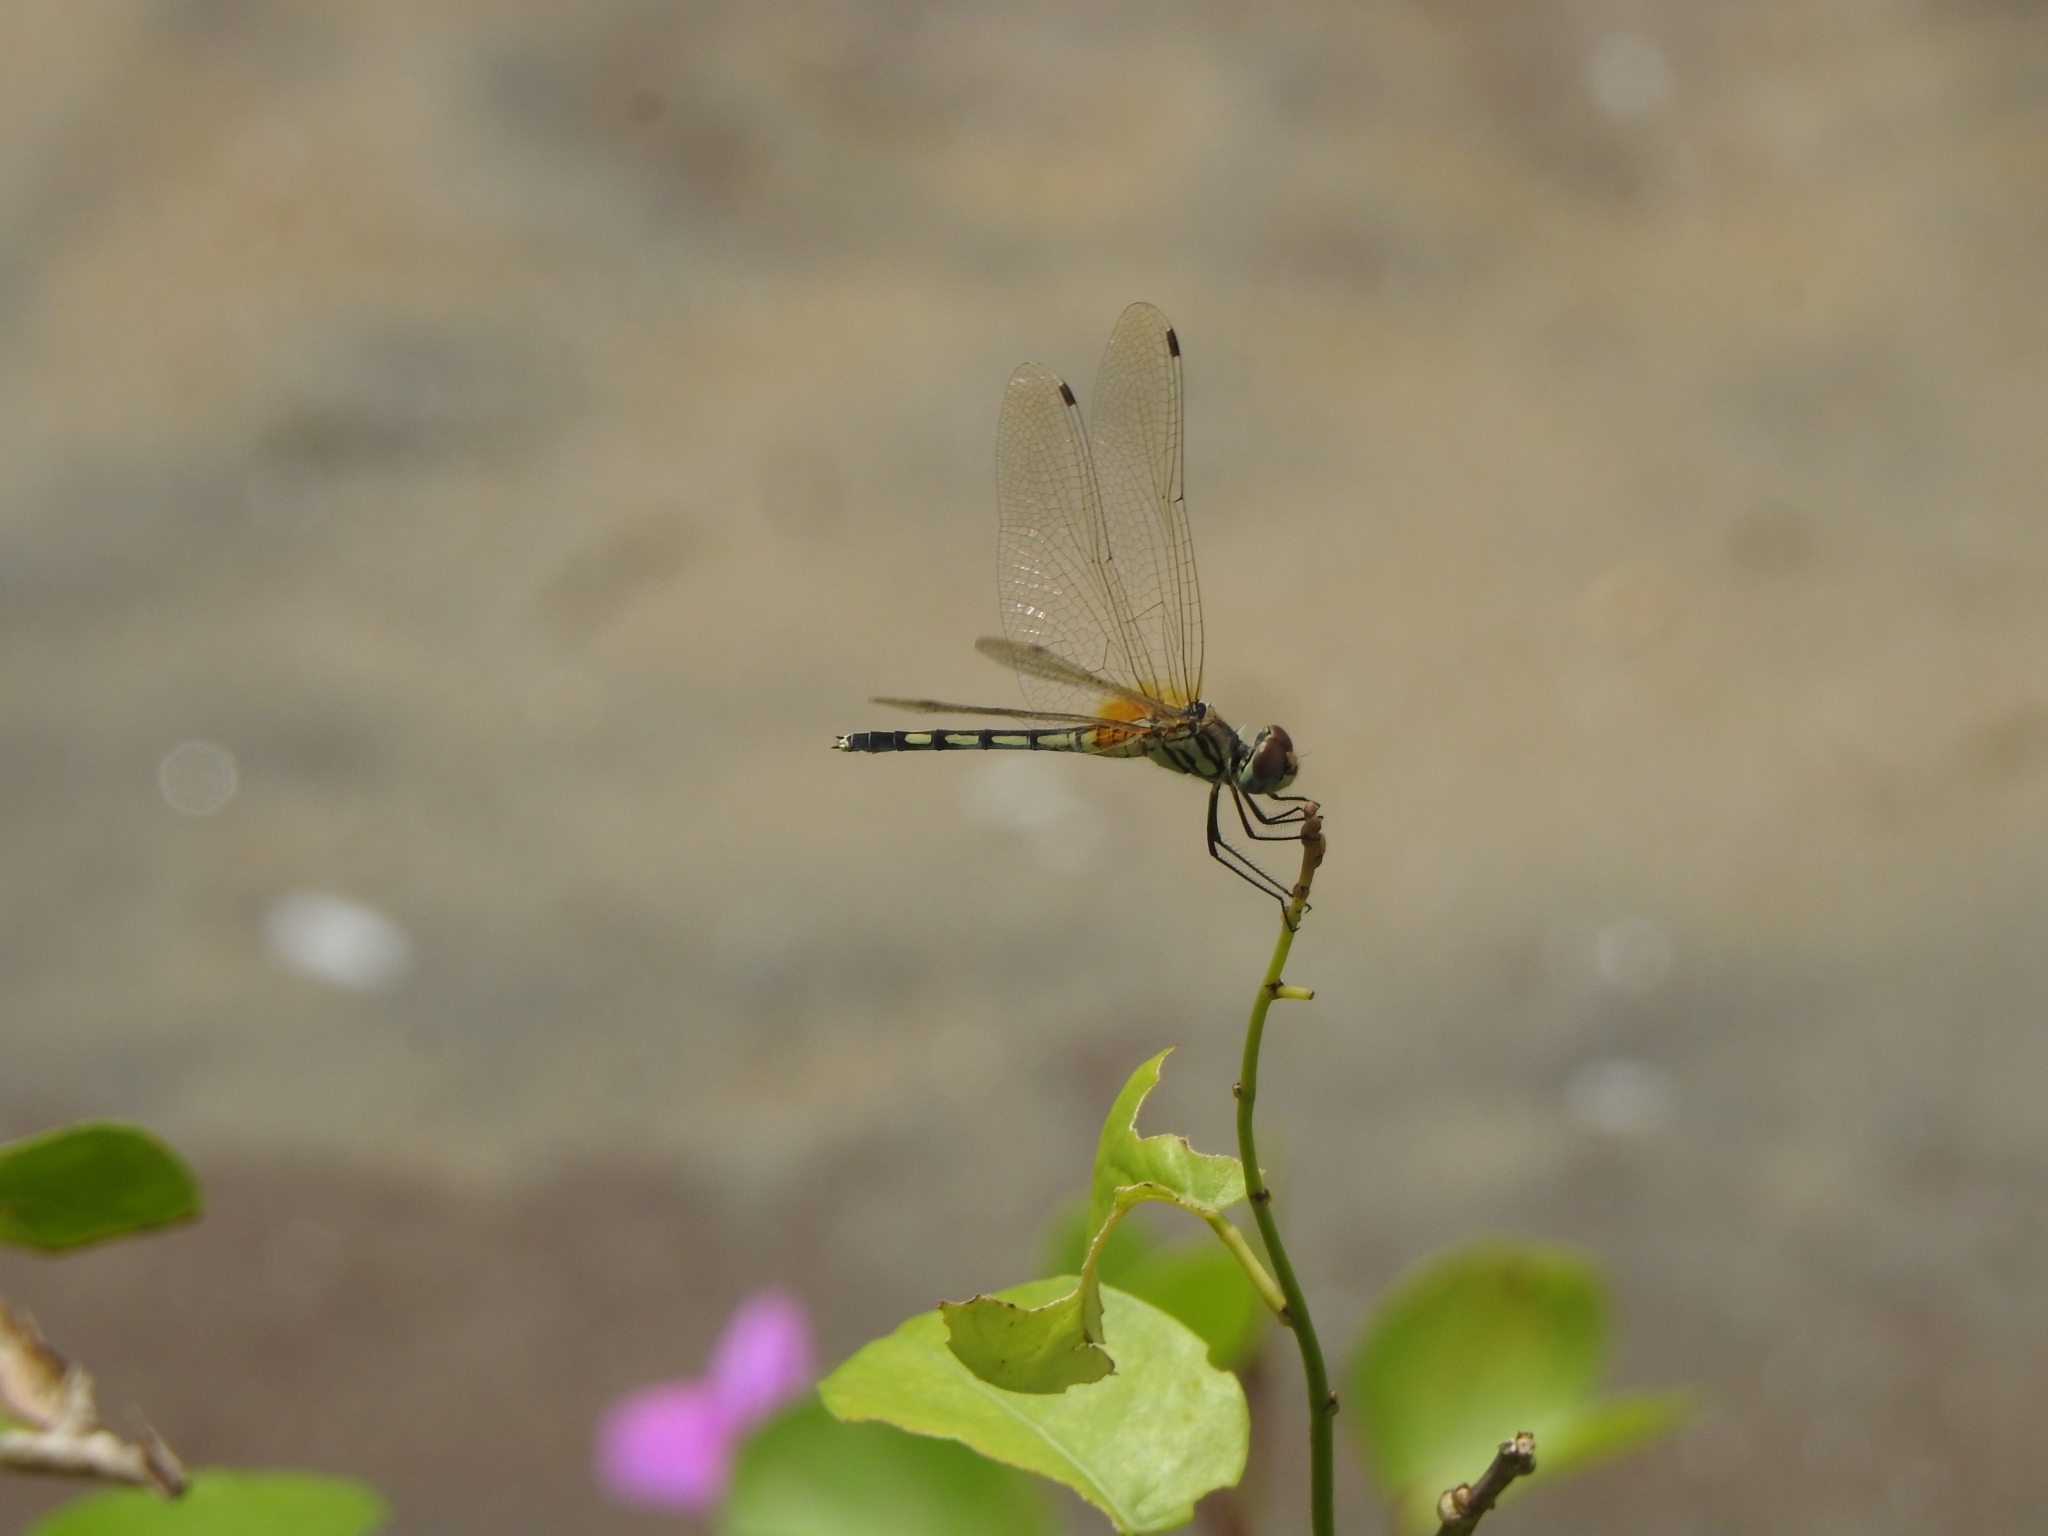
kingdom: Animalia
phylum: Arthropoda
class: Insecta
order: Odonata
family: Libellulidae
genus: Trithemis
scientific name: Trithemis pallidinervis
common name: Dancing dropwing
